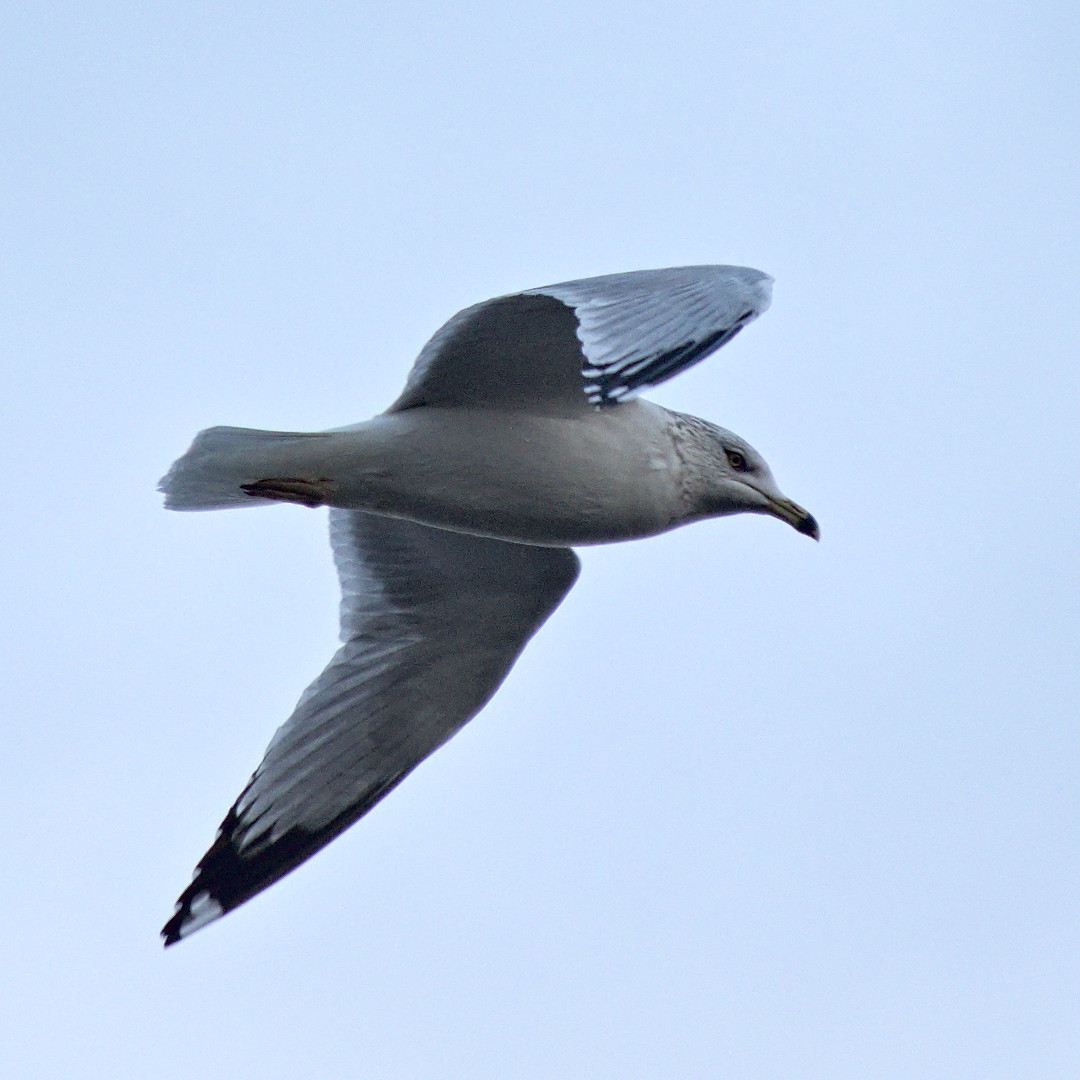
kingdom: Animalia
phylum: Chordata
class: Aves
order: Charadriiformes
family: Laridae
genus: Larus
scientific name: Larus delawarensis
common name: Ring-billed gull
